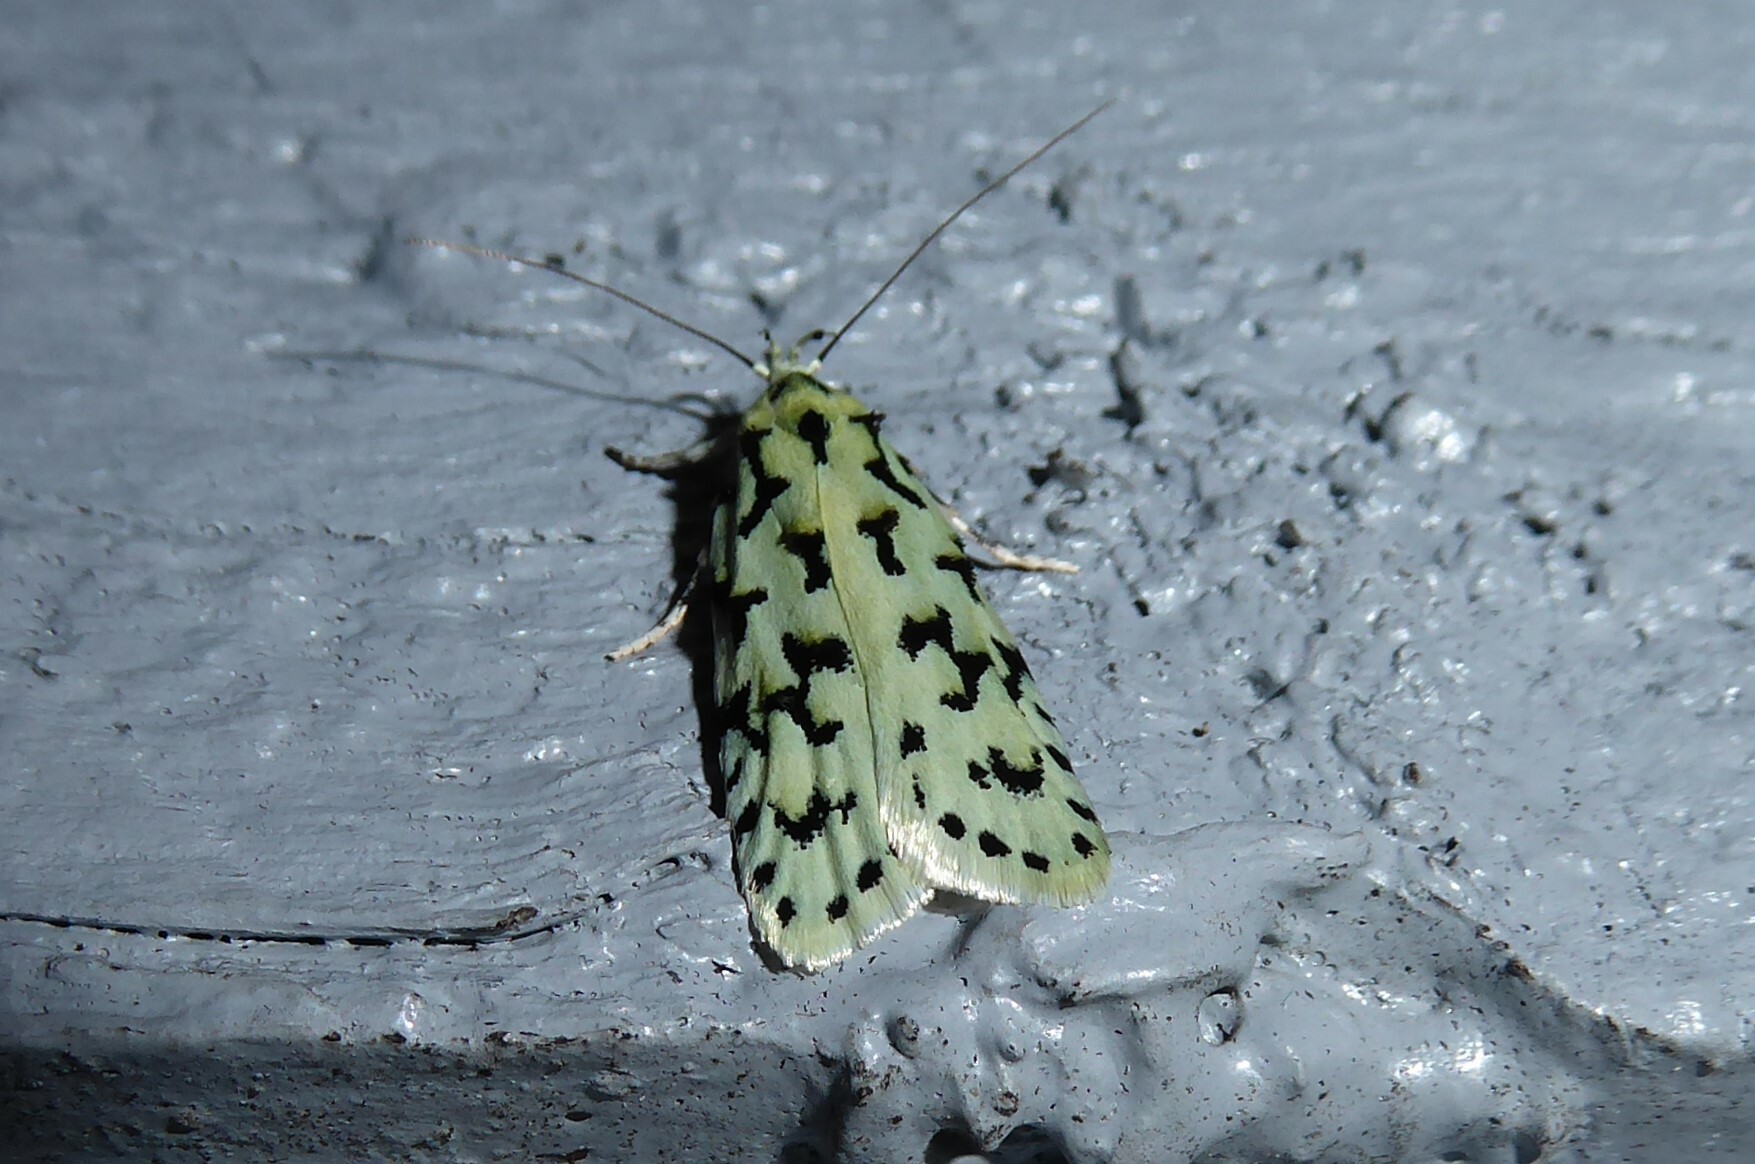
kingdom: Animalia
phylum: Arthropoda
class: Insecta
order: Lepidoptera
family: Oecophoridae
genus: Izatha
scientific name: Izatha huttoni
